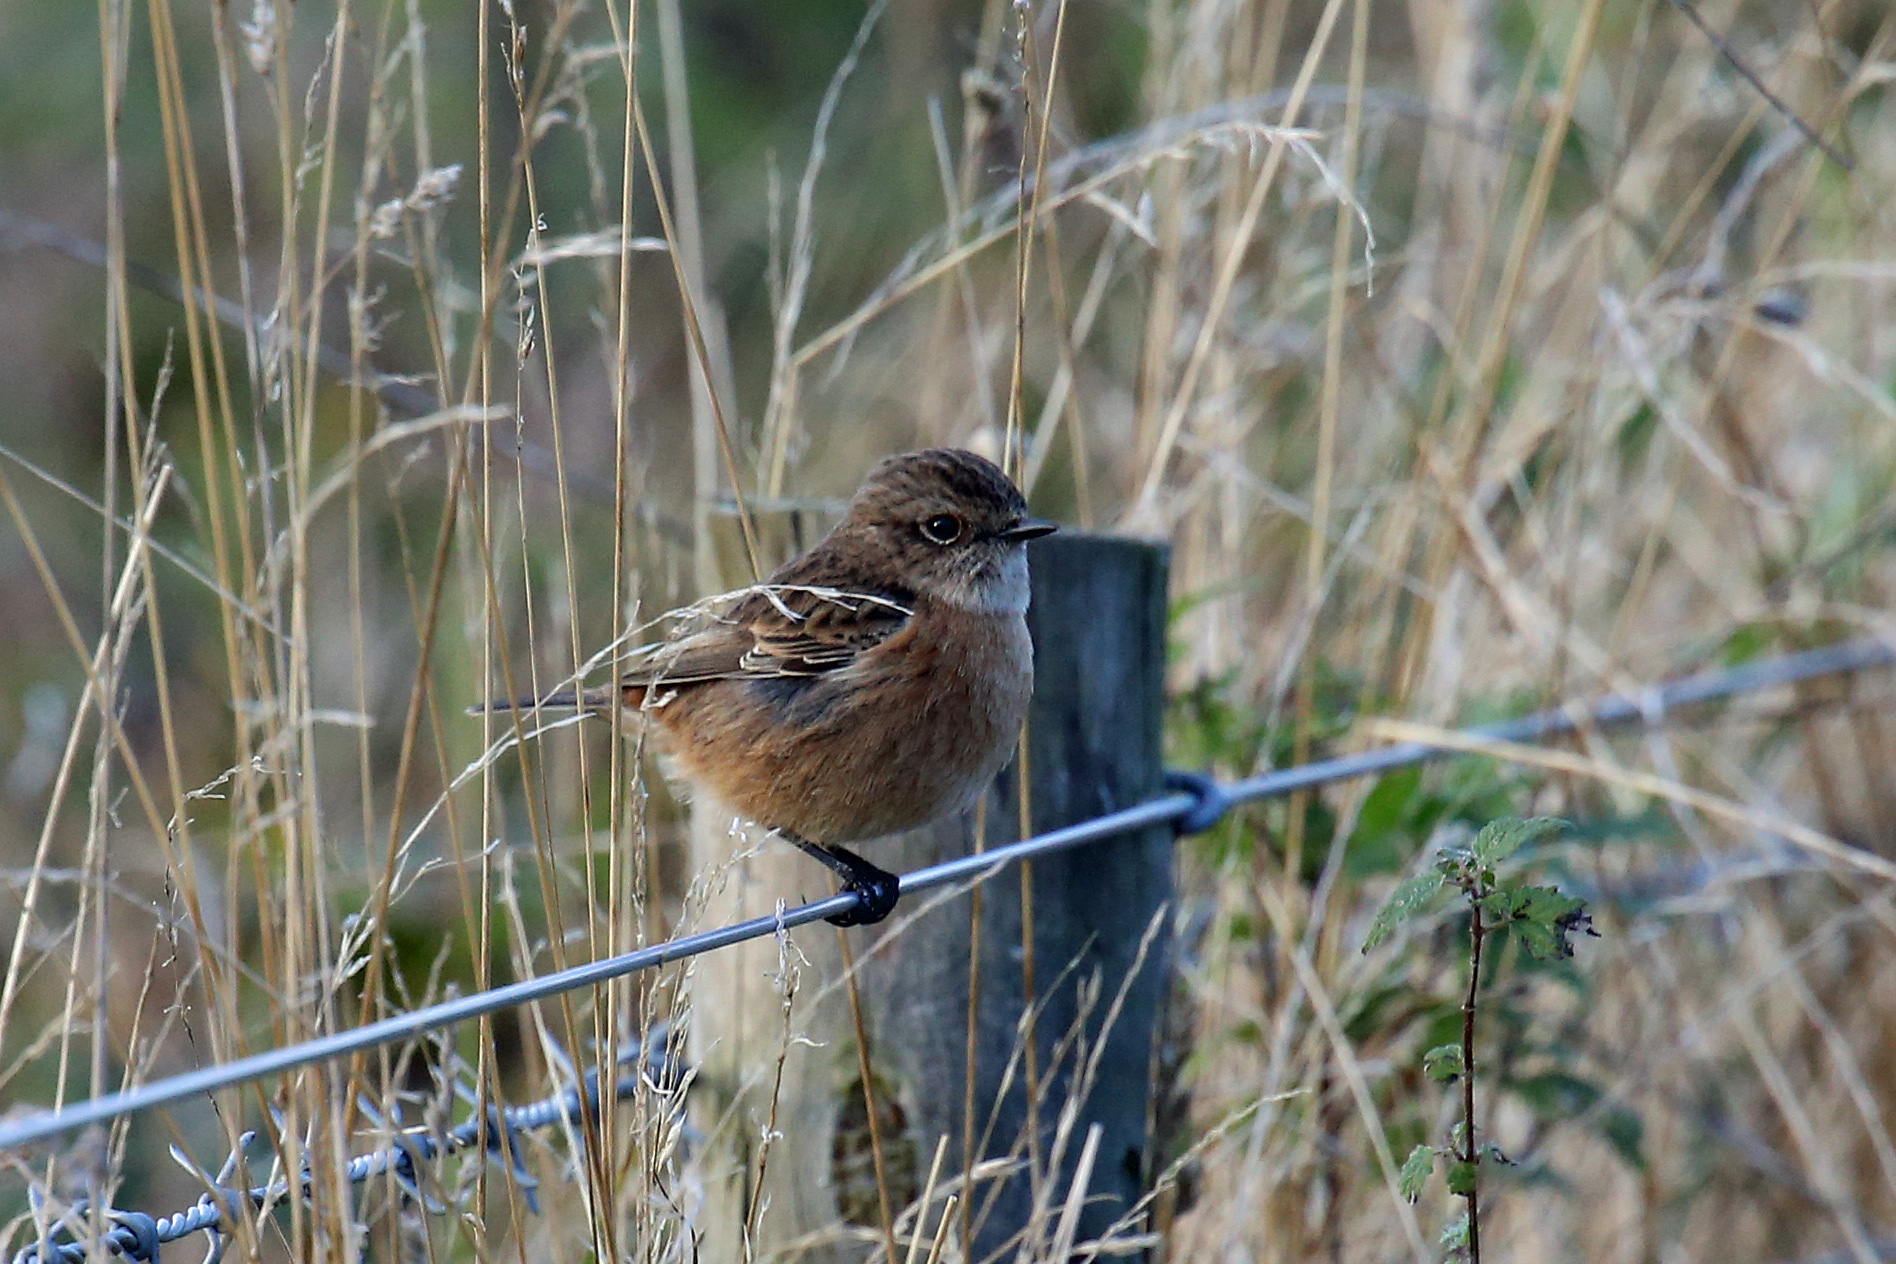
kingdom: Animalia
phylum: Chordata
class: Aves
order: Passeriformes
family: Muscicapidae
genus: Saxicola
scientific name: Saxicola rubicola
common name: European stonechat
